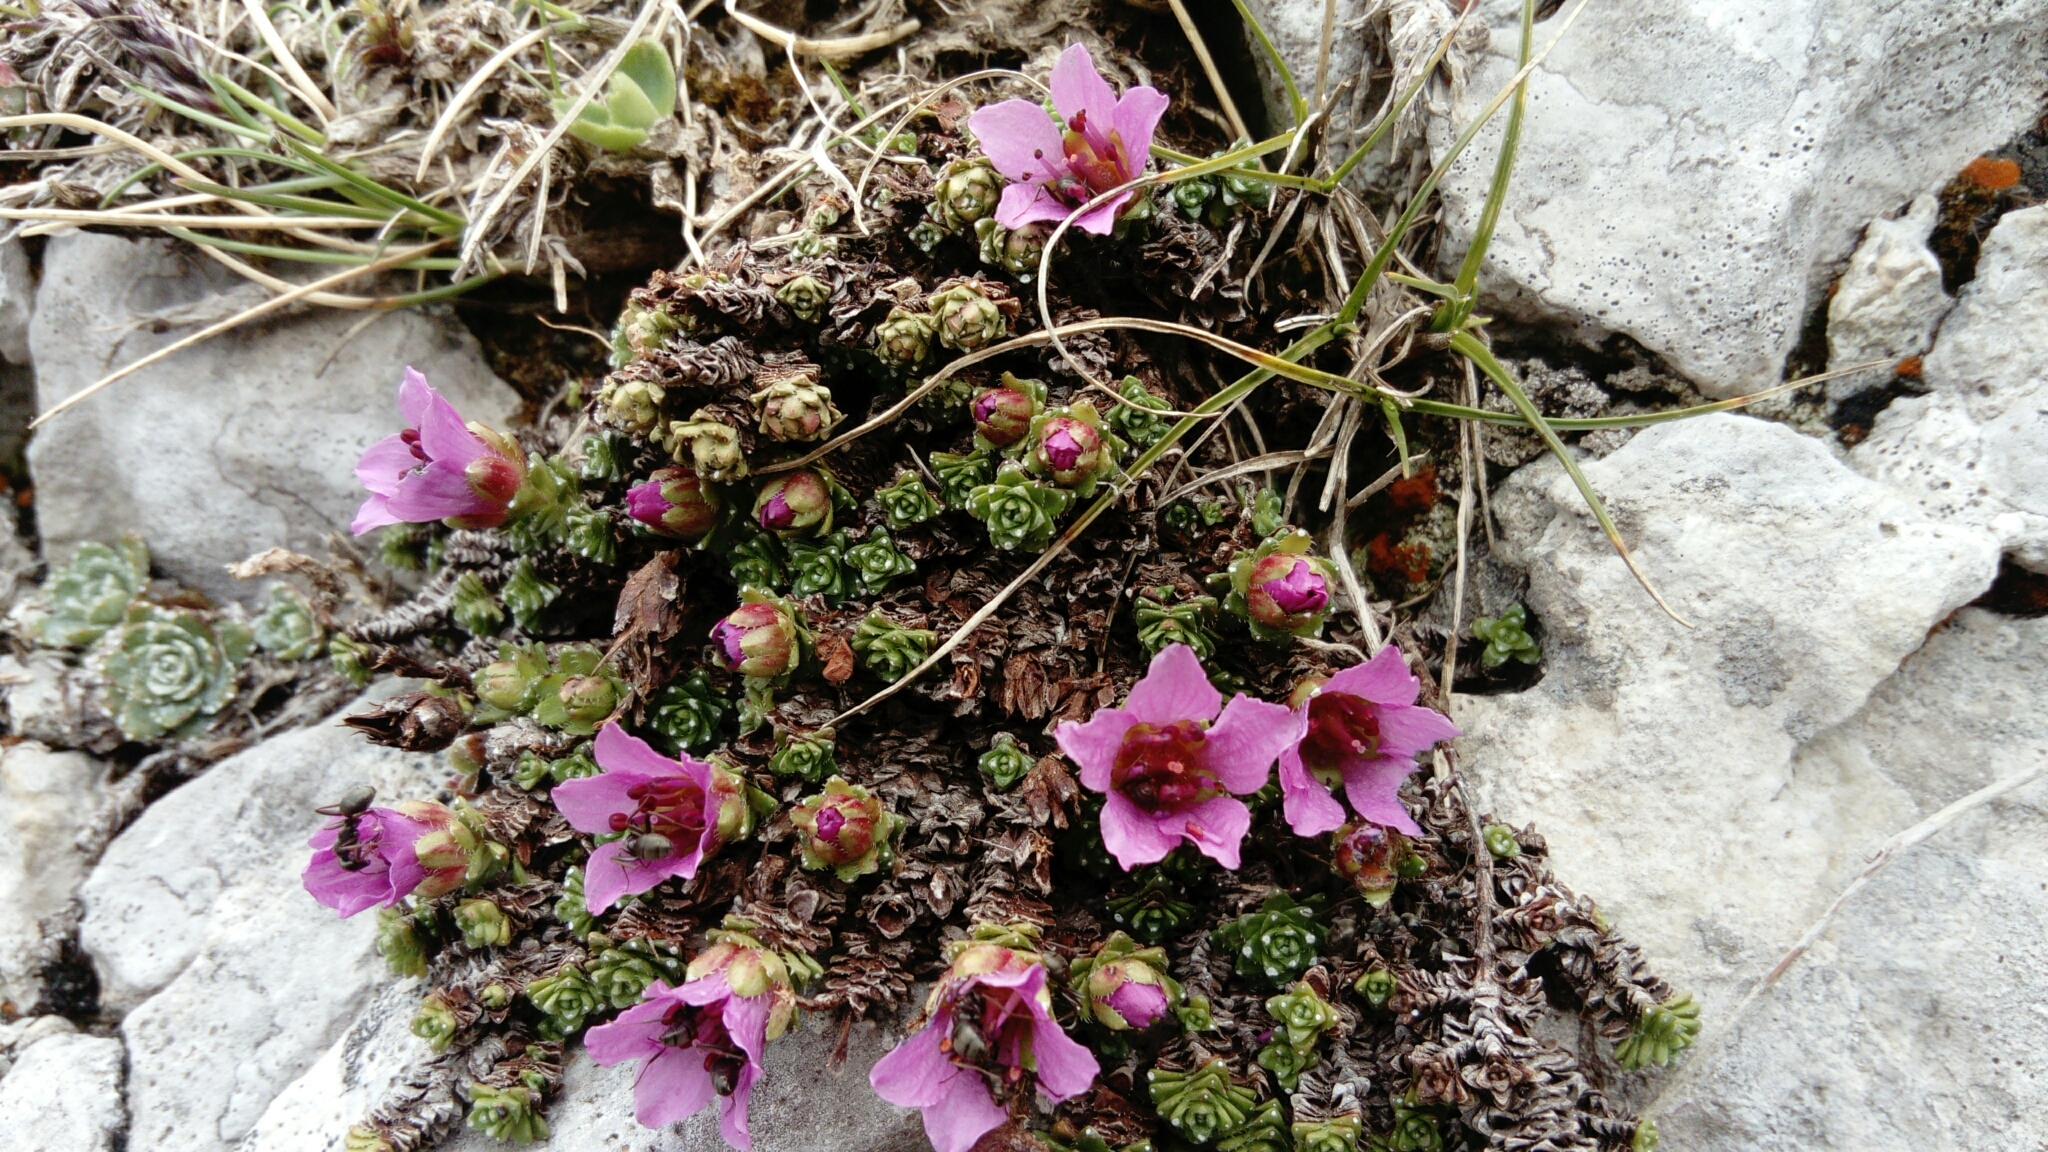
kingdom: Plantae
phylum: Tracheophyta
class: Magnoliopsida
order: Saxifragales
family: Saxifragaceae
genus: Saxifraga
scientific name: Saxifraga oppositifolia
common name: Purple saxifrage
